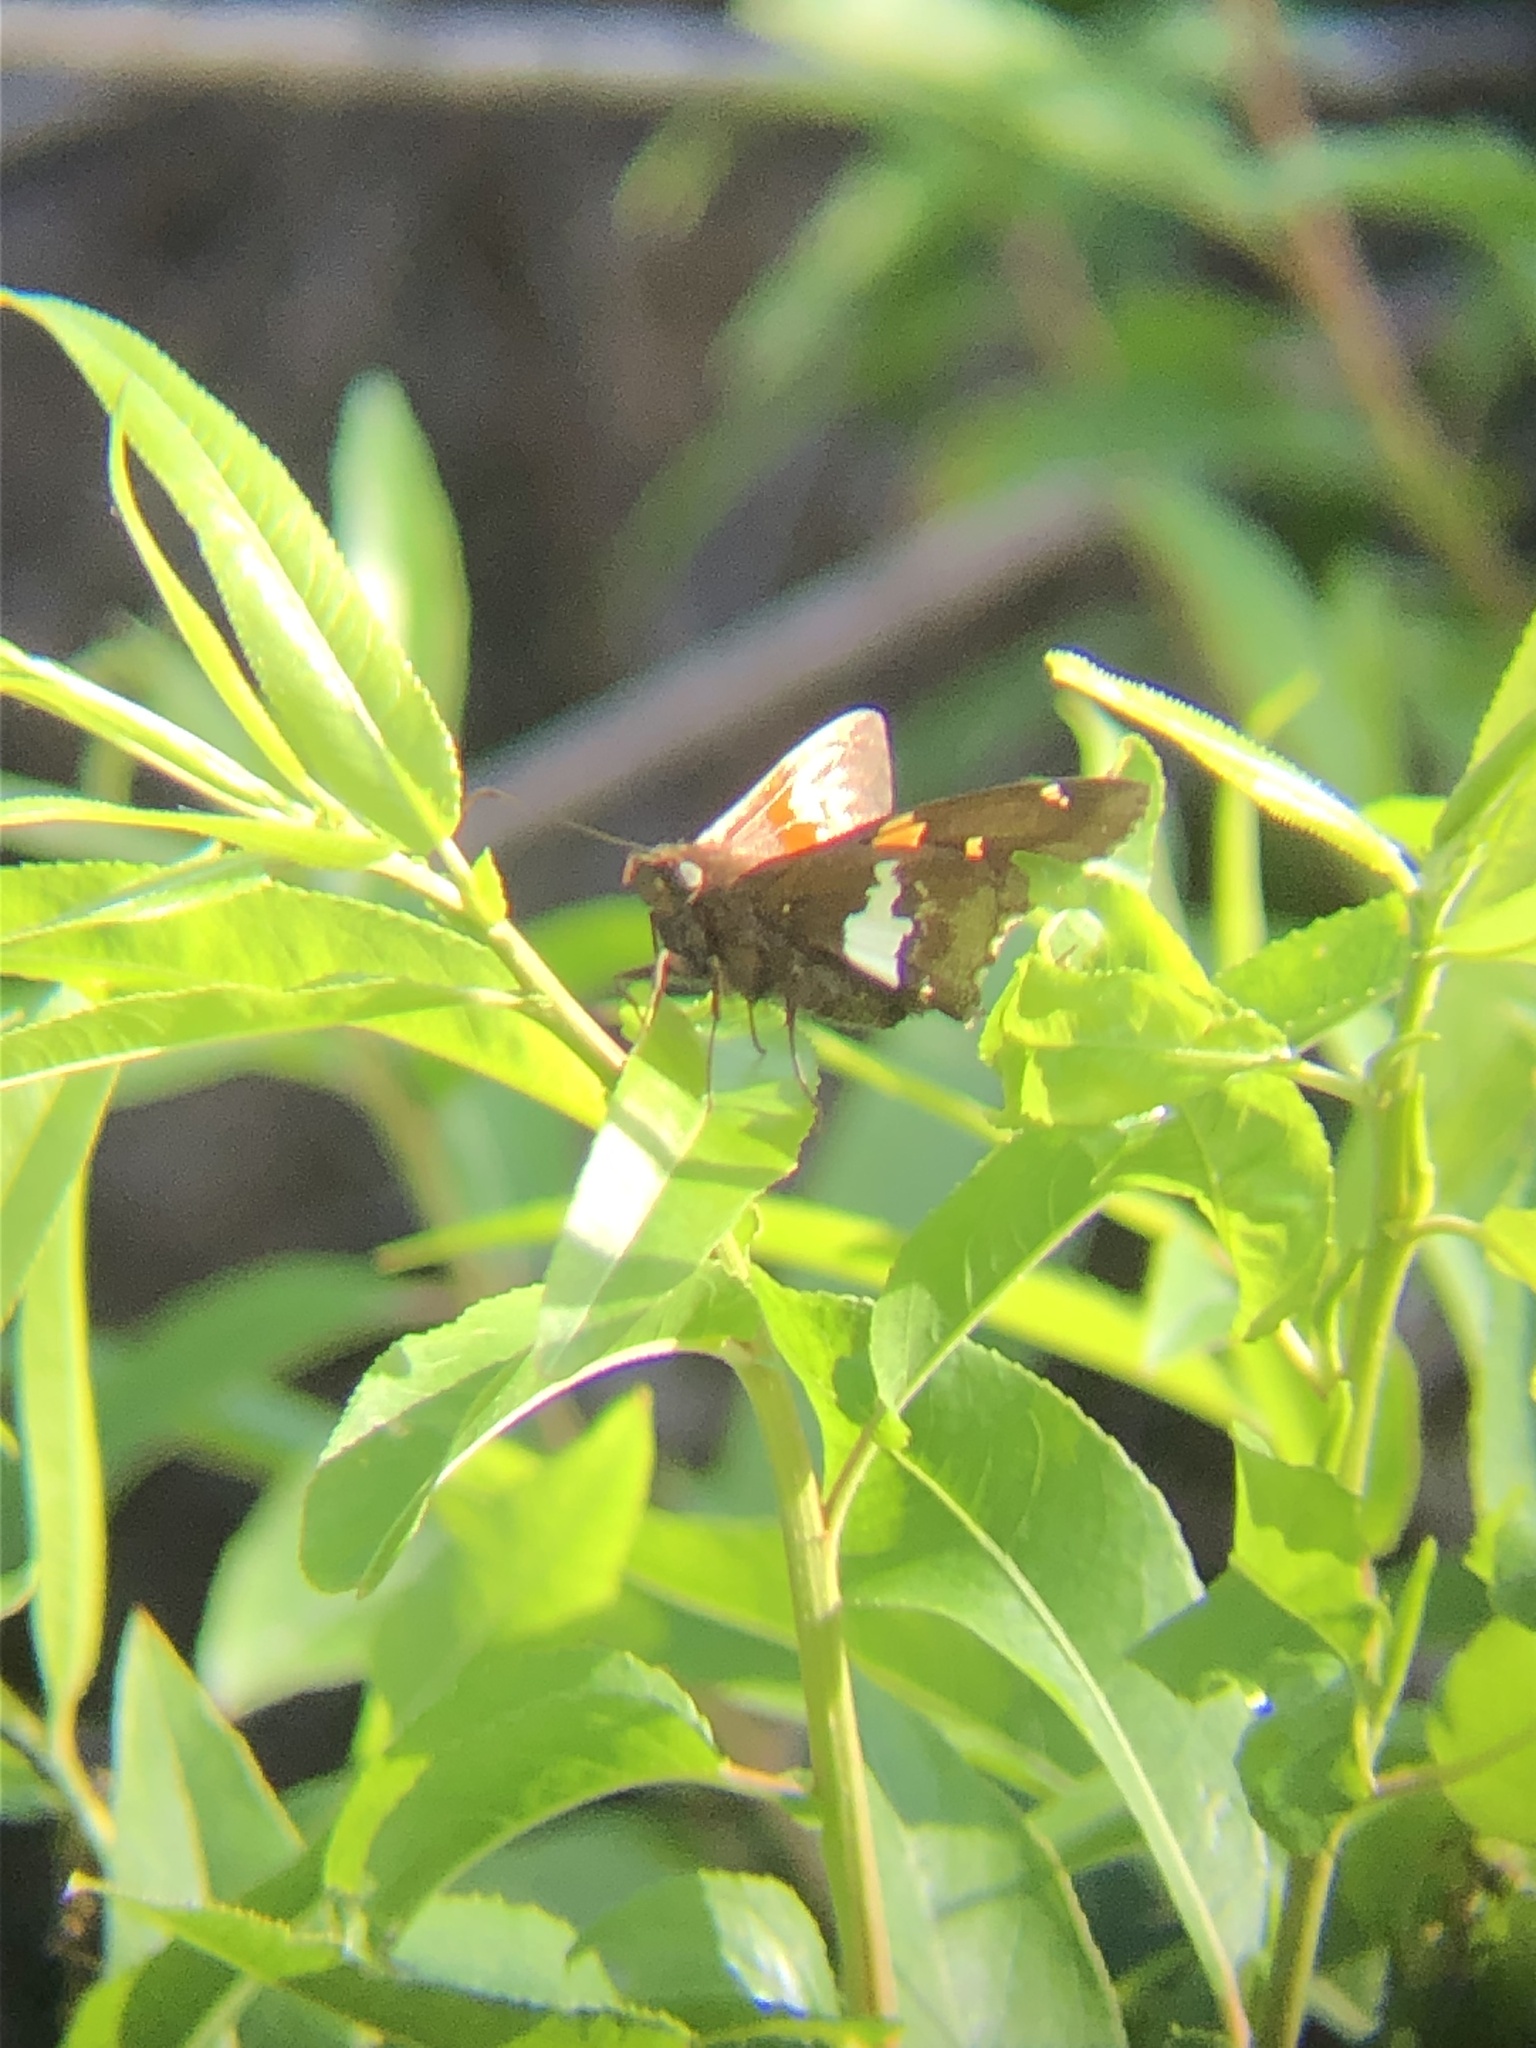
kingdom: Animalia
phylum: Arthropoda
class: Insecta
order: Lepidoptera
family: Hesperiidae
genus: Epargyreus
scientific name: Epargyreus clarus
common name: Silver-spotted skipper
